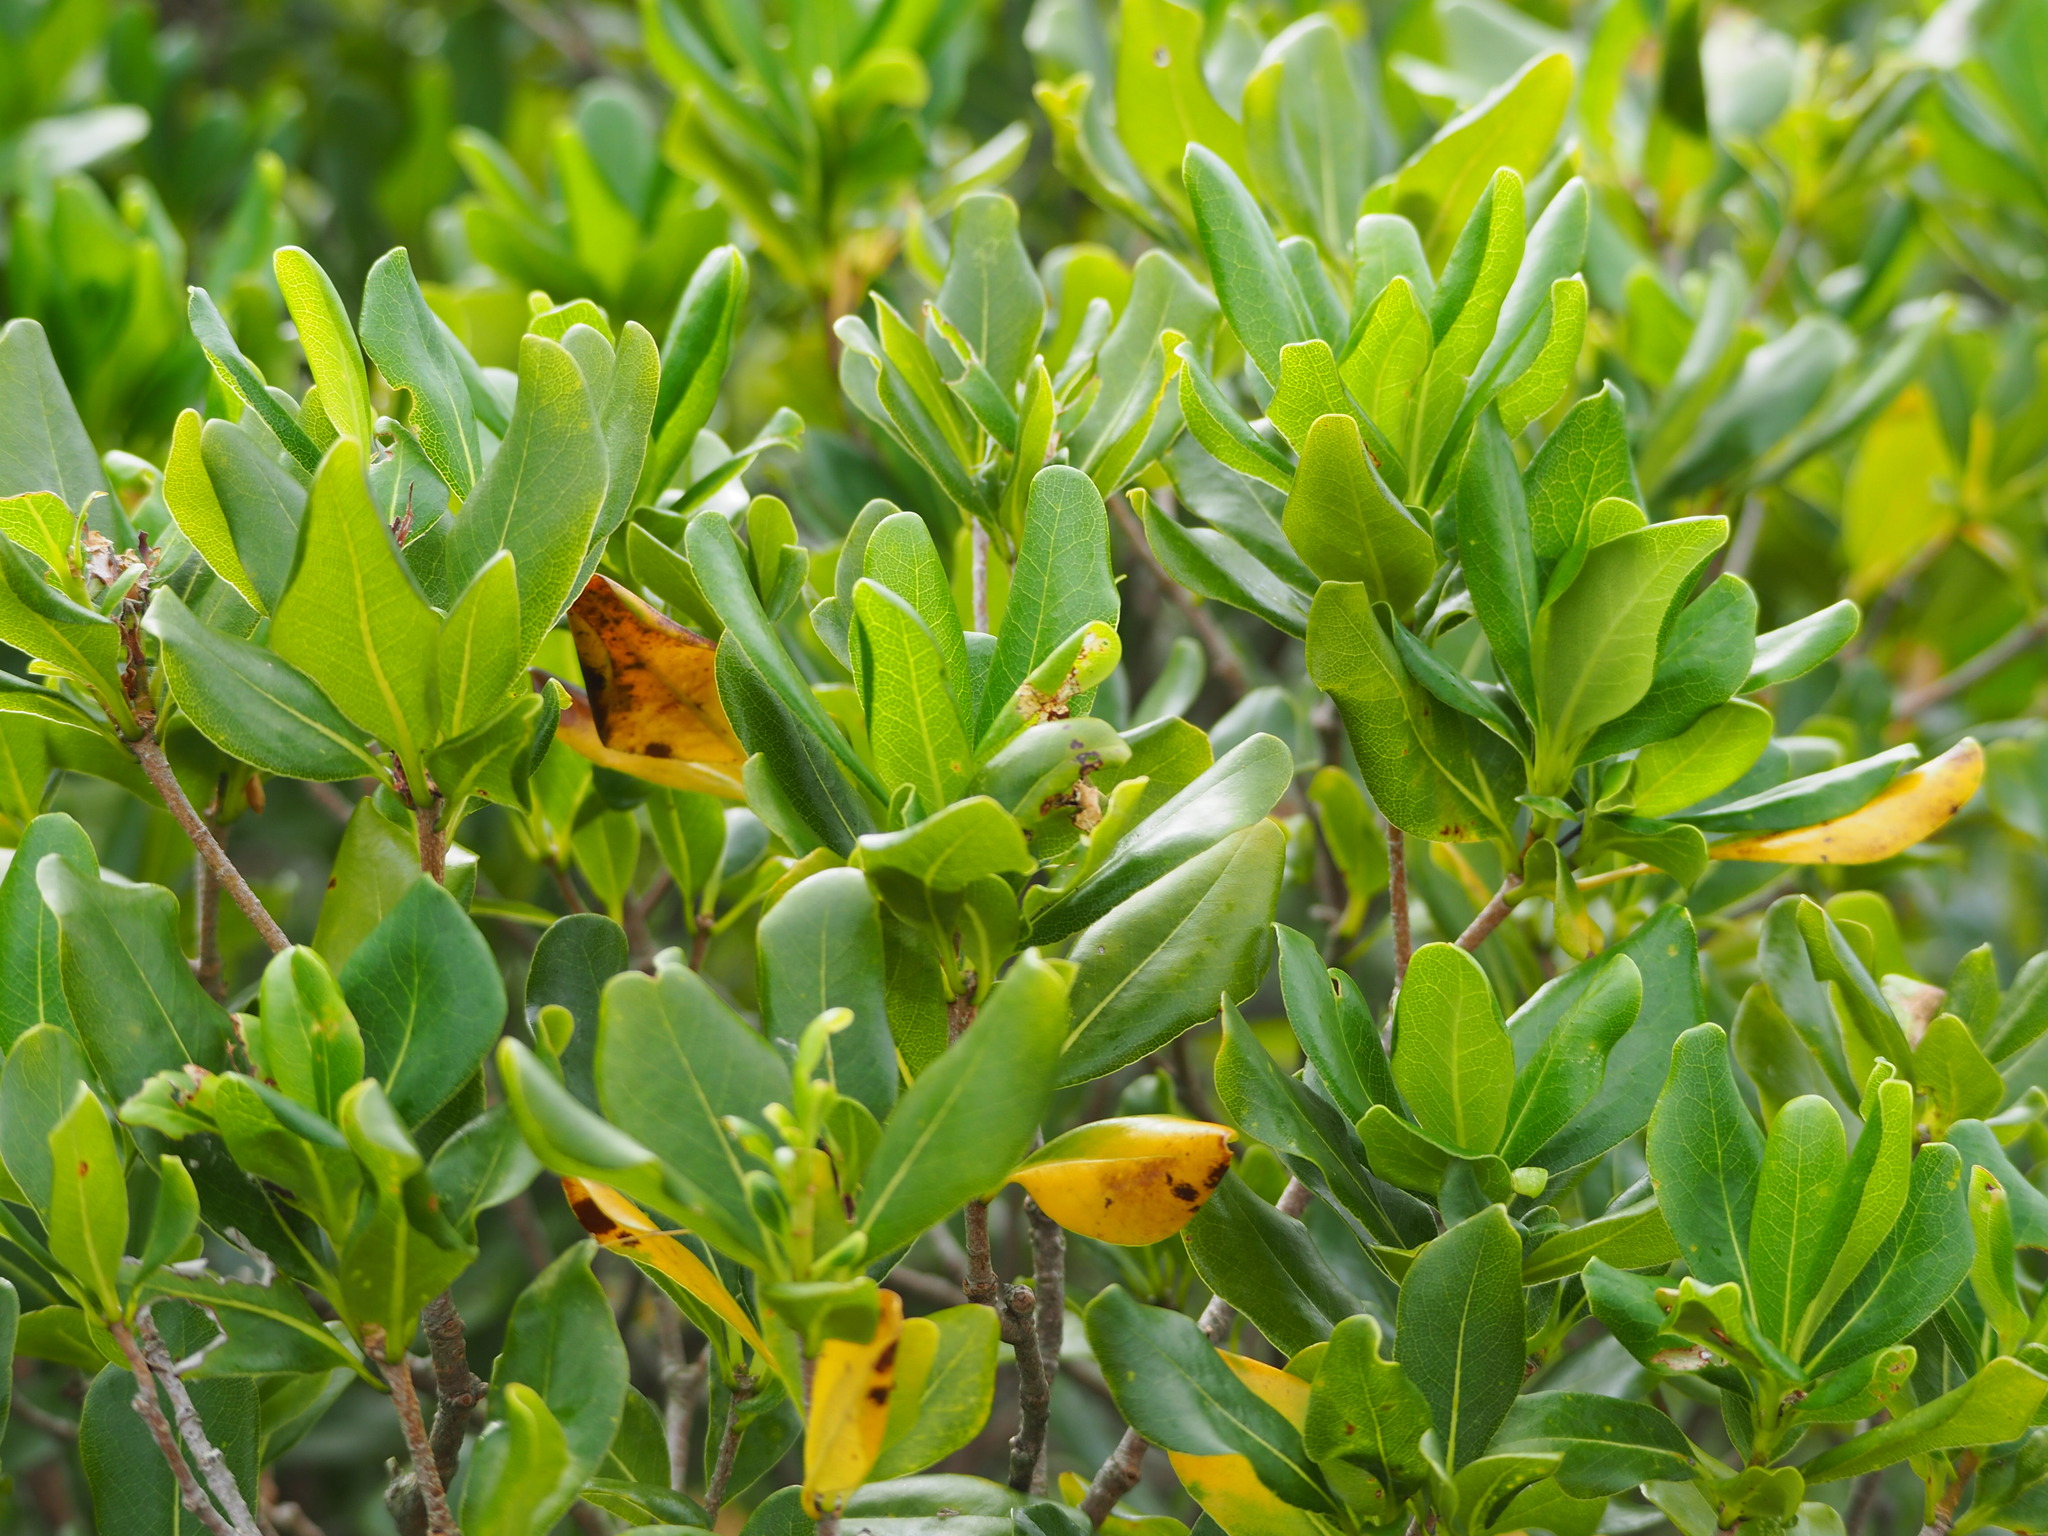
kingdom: Plantae
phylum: Tracheophyta
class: Magnoliopsida
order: Apiales
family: Pittosporaceae
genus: Pittosporum
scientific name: Pittosporum tobira
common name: Japanese cheesewood
